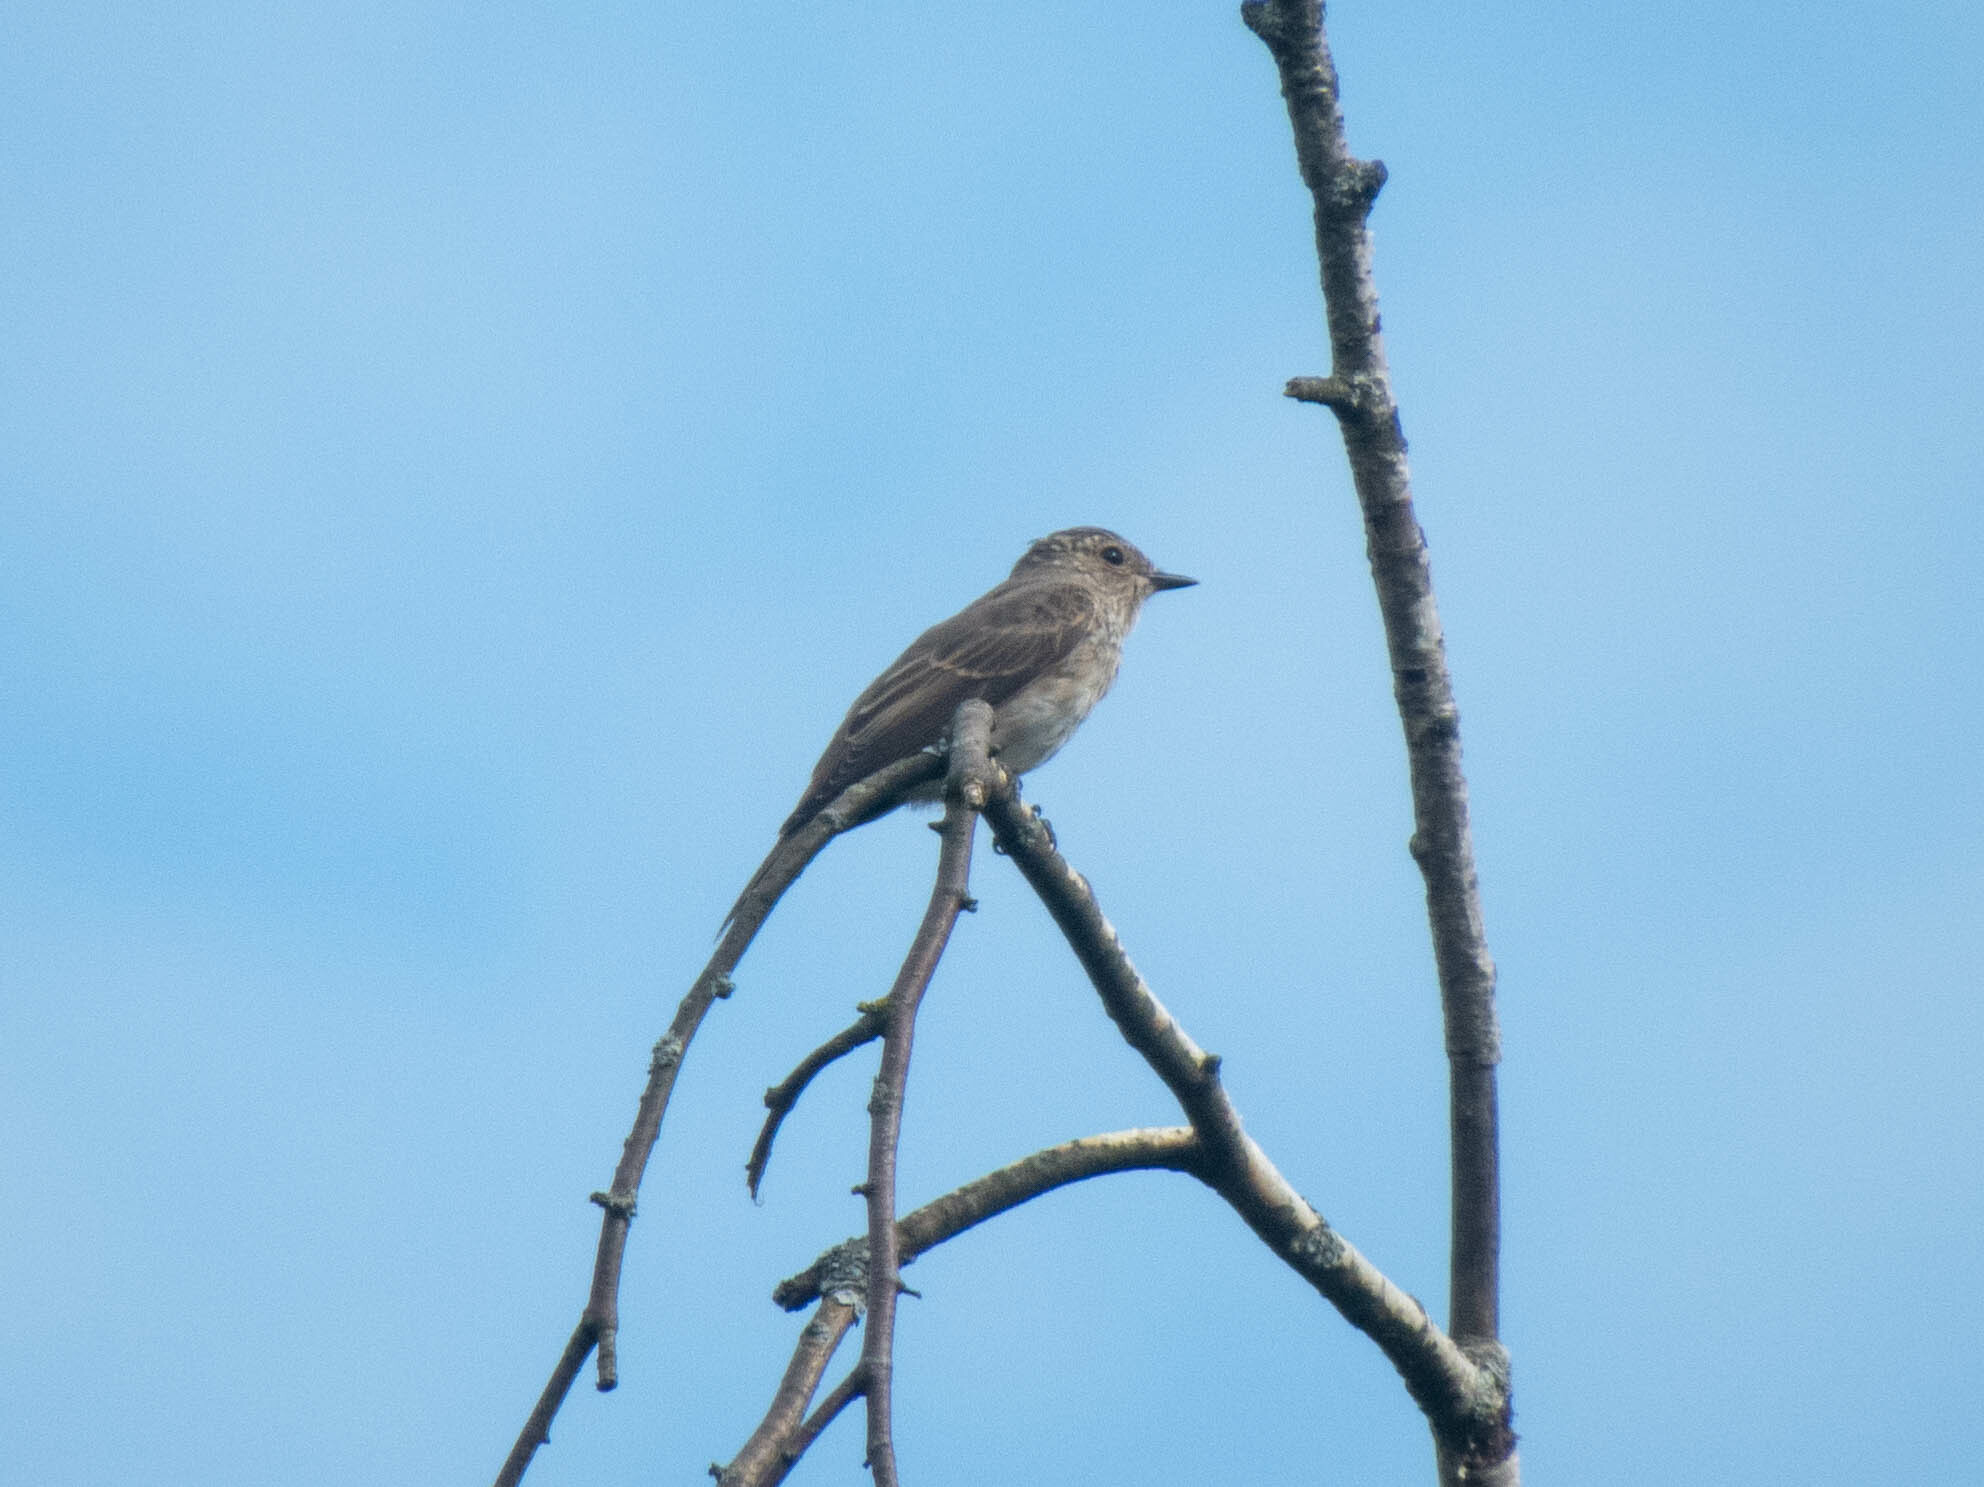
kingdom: Animalia
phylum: Chordata
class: Aves
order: Passeriformes
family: Muscicapidae
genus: Muscicapa
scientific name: Muscicapa striata
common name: Spotted flycatcher
